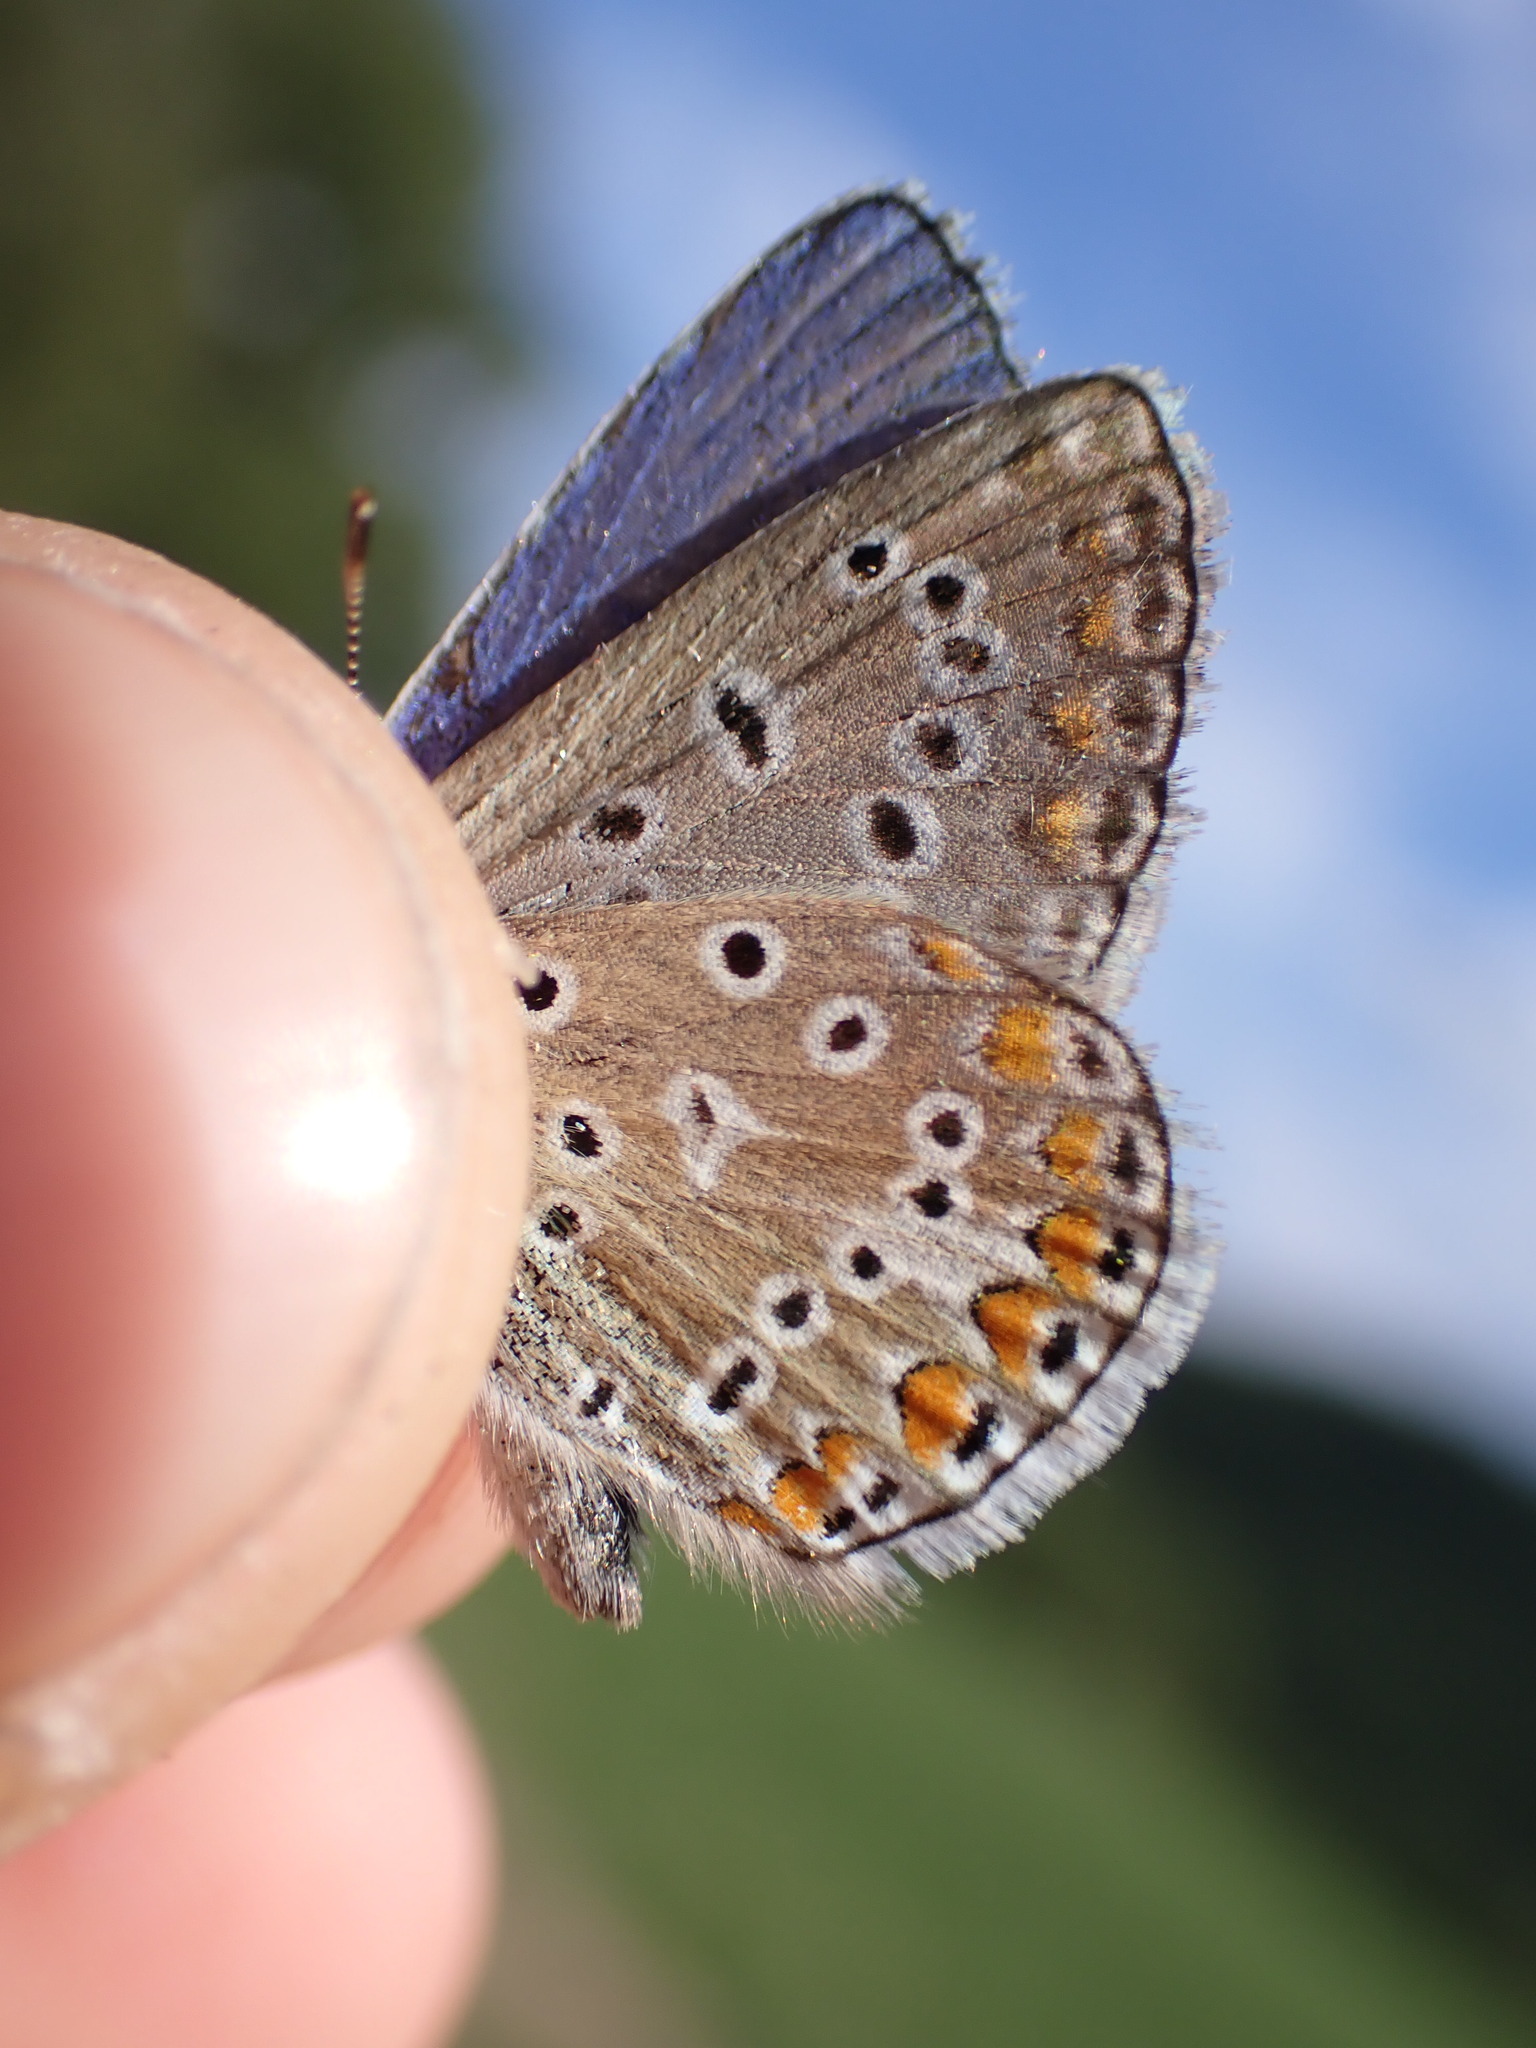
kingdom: Animalia
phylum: Arthropoda
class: Insecta
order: Lepidoptera
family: Lycaenidae
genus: Polyommatus
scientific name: Polyommatus icarus
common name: Common blue
